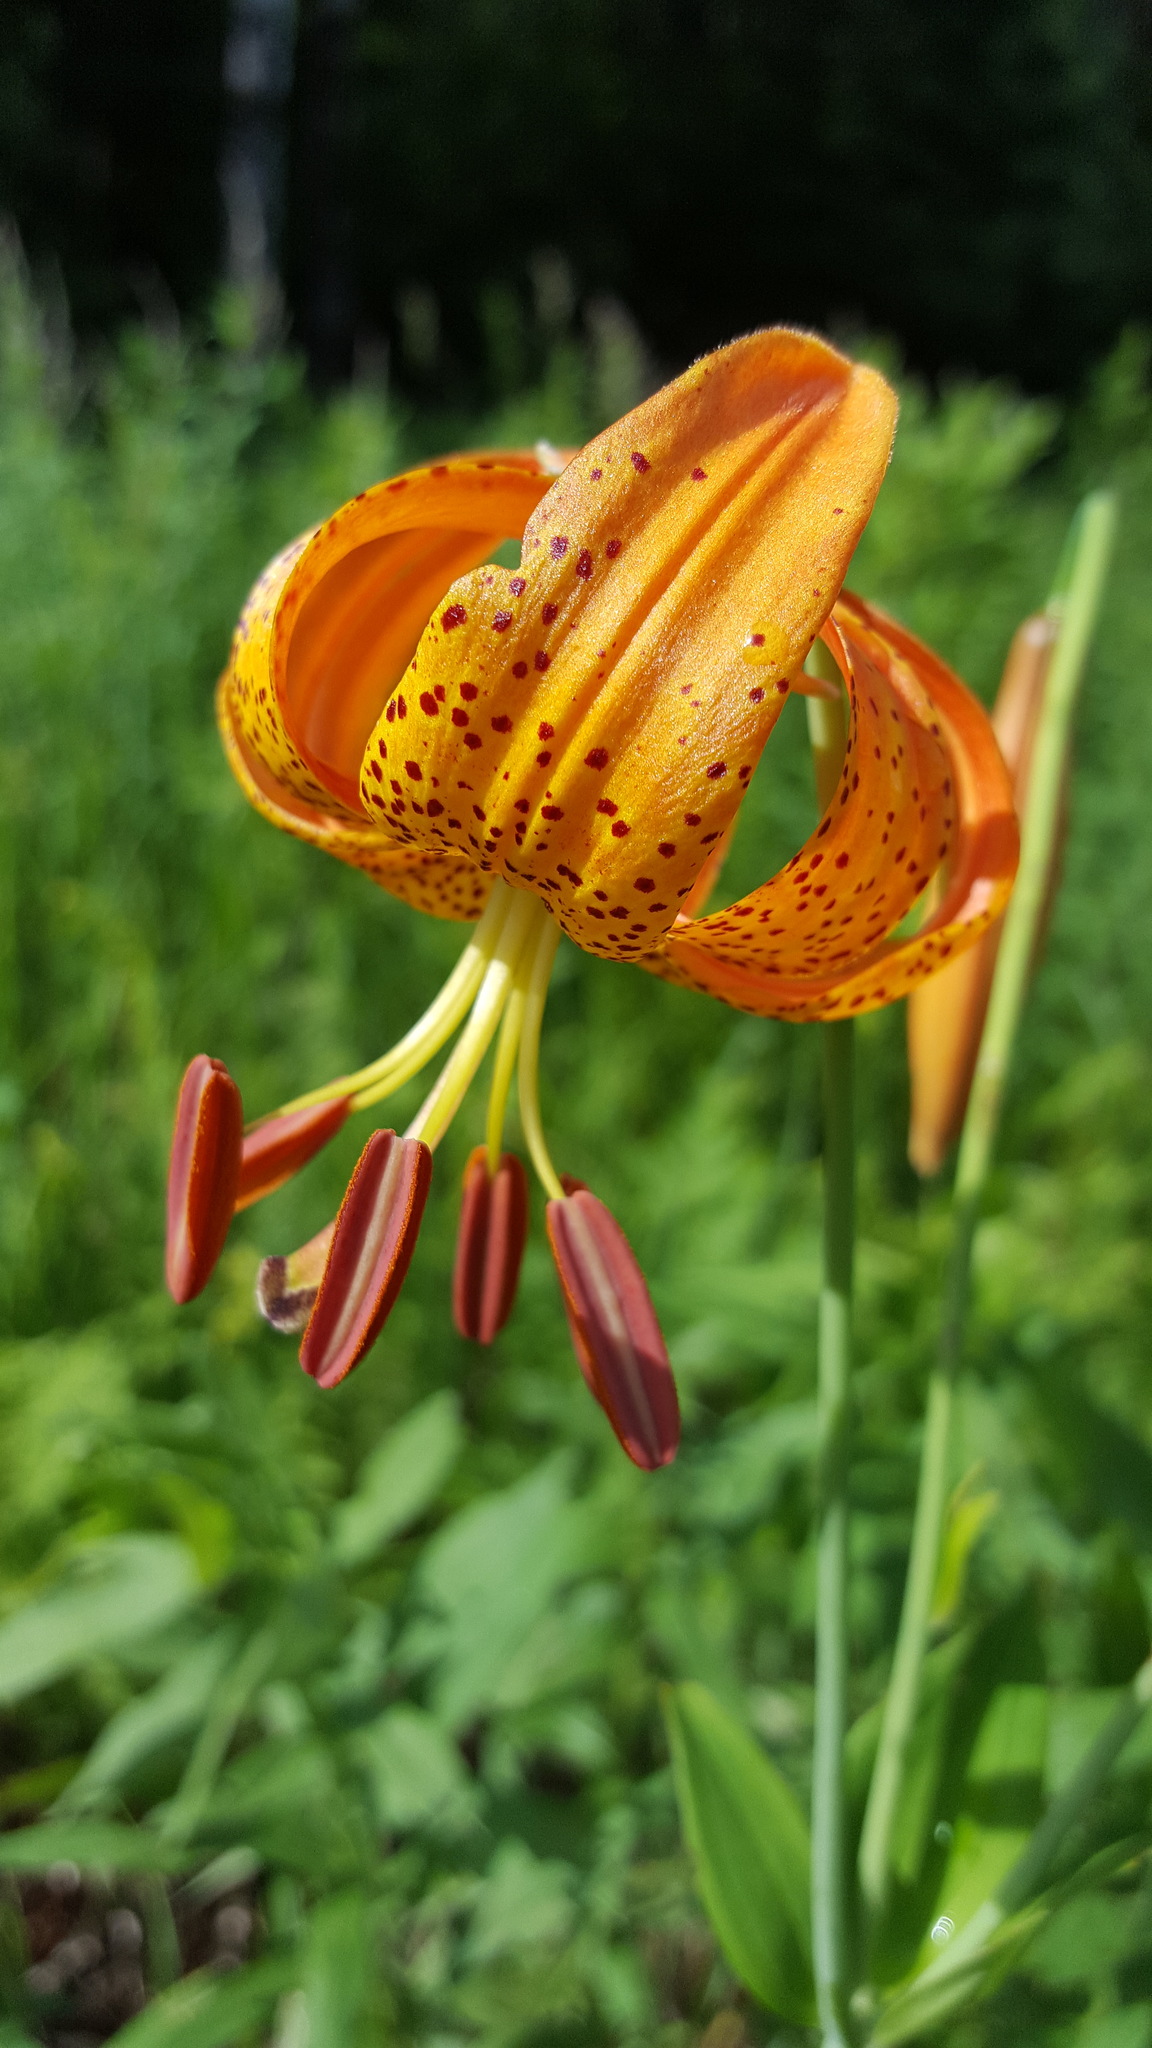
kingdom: Plantae
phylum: Tracheophyta
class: Liliopsida
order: Liliales
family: Liliaceae
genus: Lilium
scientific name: Lilium michiganense
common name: Michigan lily
